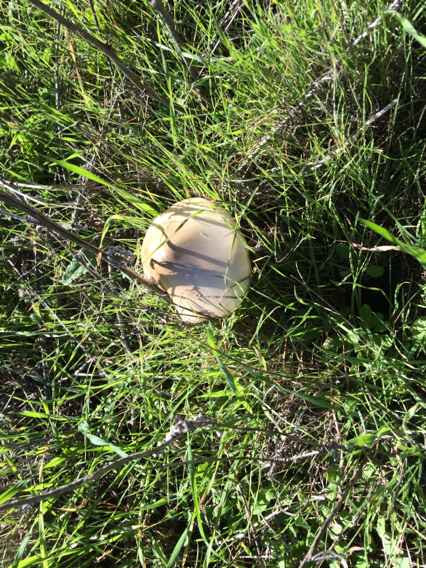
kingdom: Fungi
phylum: Basidiomycota
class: Agaricomycetes
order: Agaricales
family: Pluteaceae
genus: Volvopluteus
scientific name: Volvopluteus gloiocephalus
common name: Stubble rosegill
